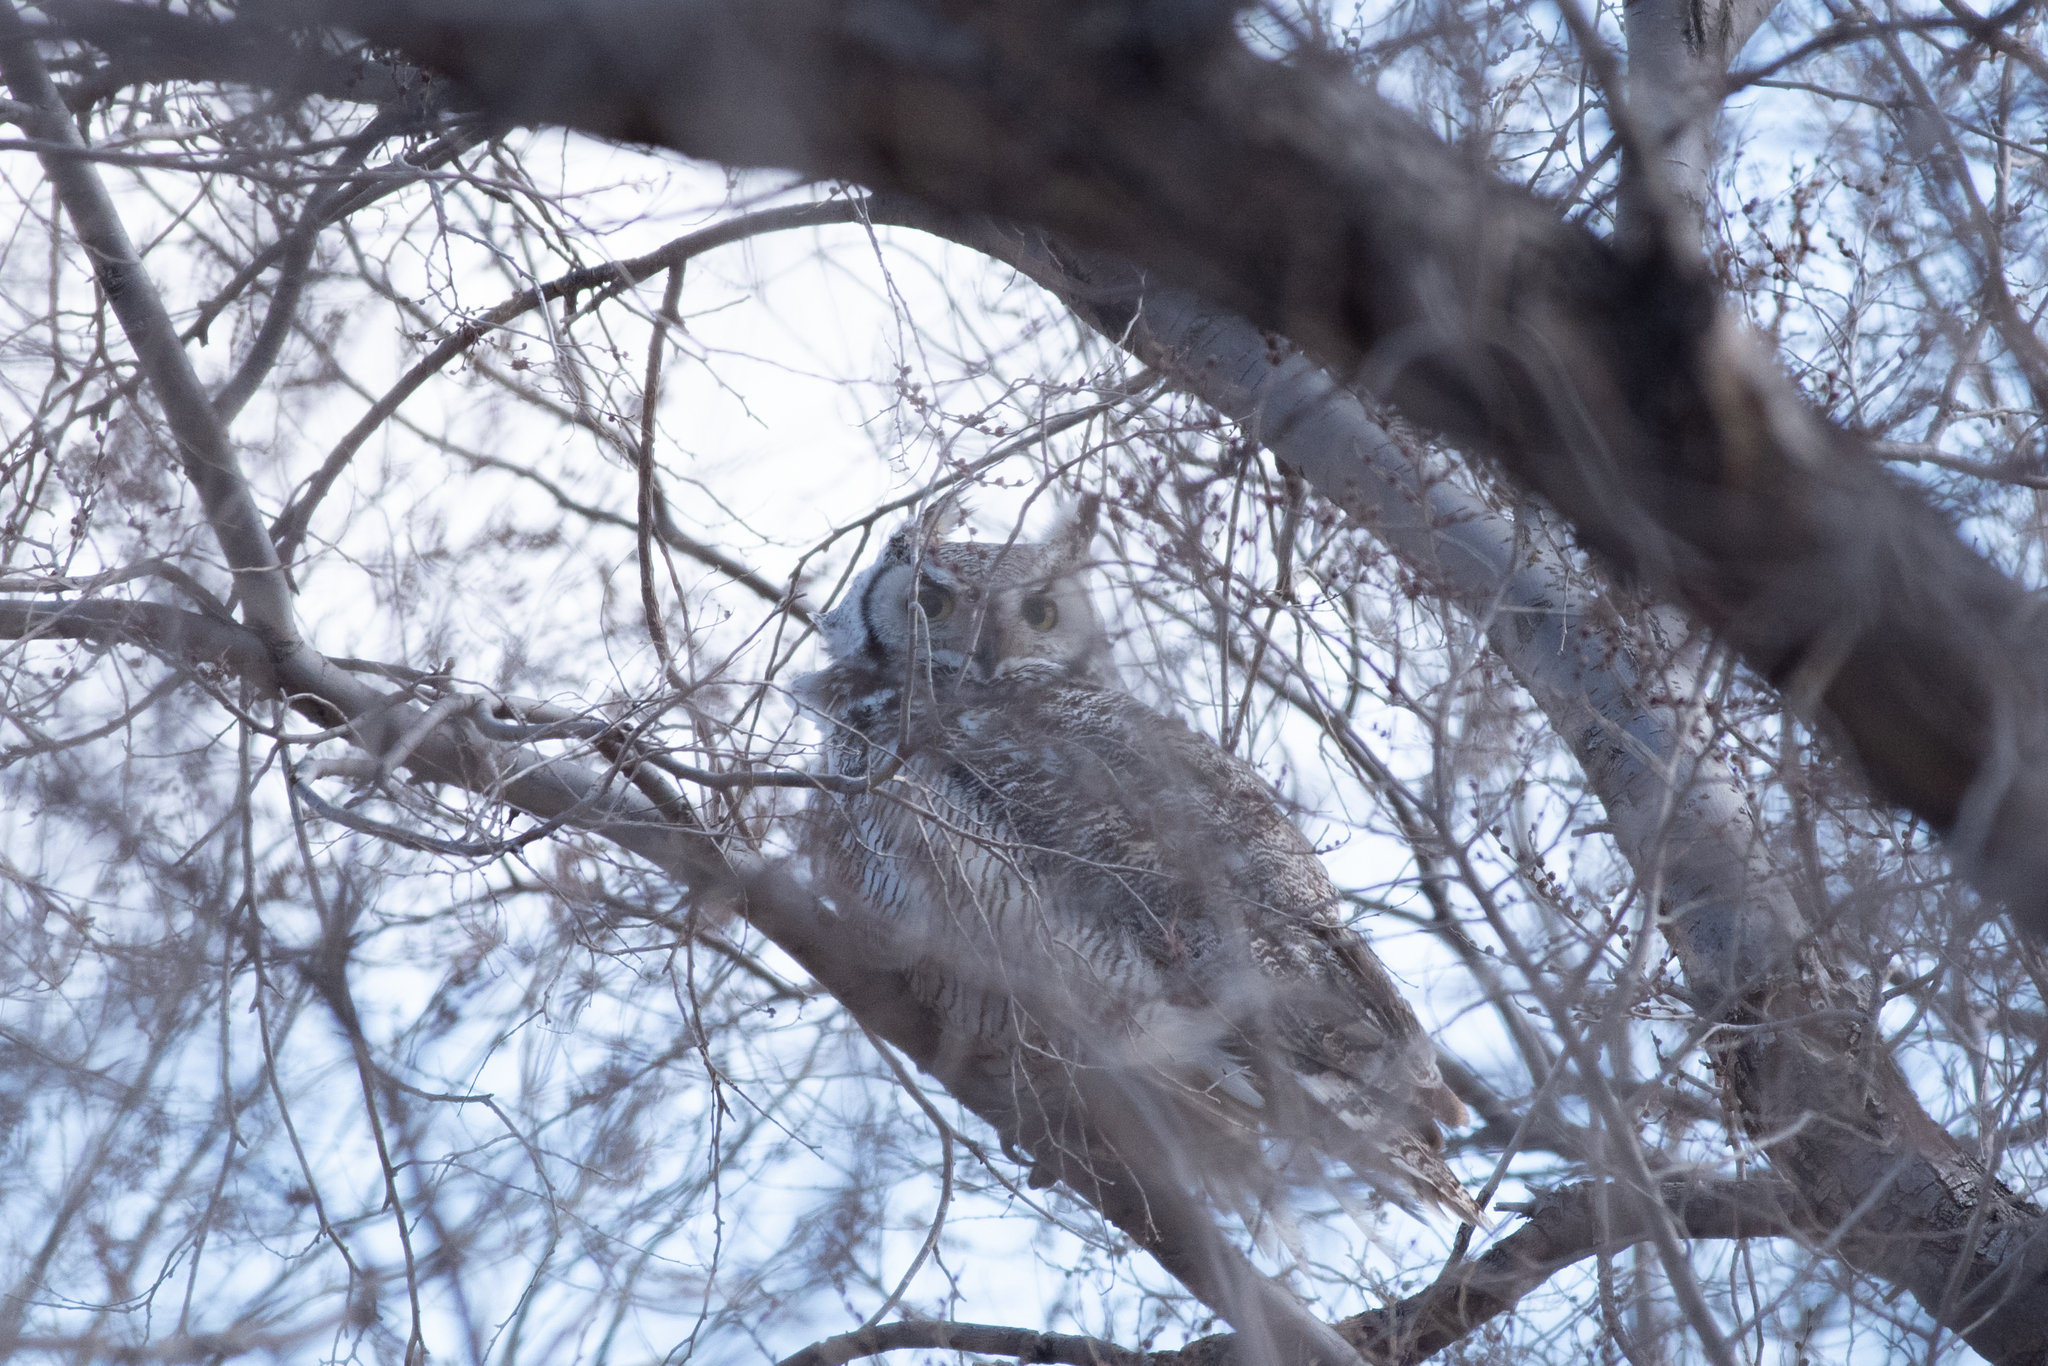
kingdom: Animalia
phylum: Chordata
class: Aves
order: Strigiformes
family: Strigidae
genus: Bubo
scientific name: Bubo virginianus
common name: Great horned owl
